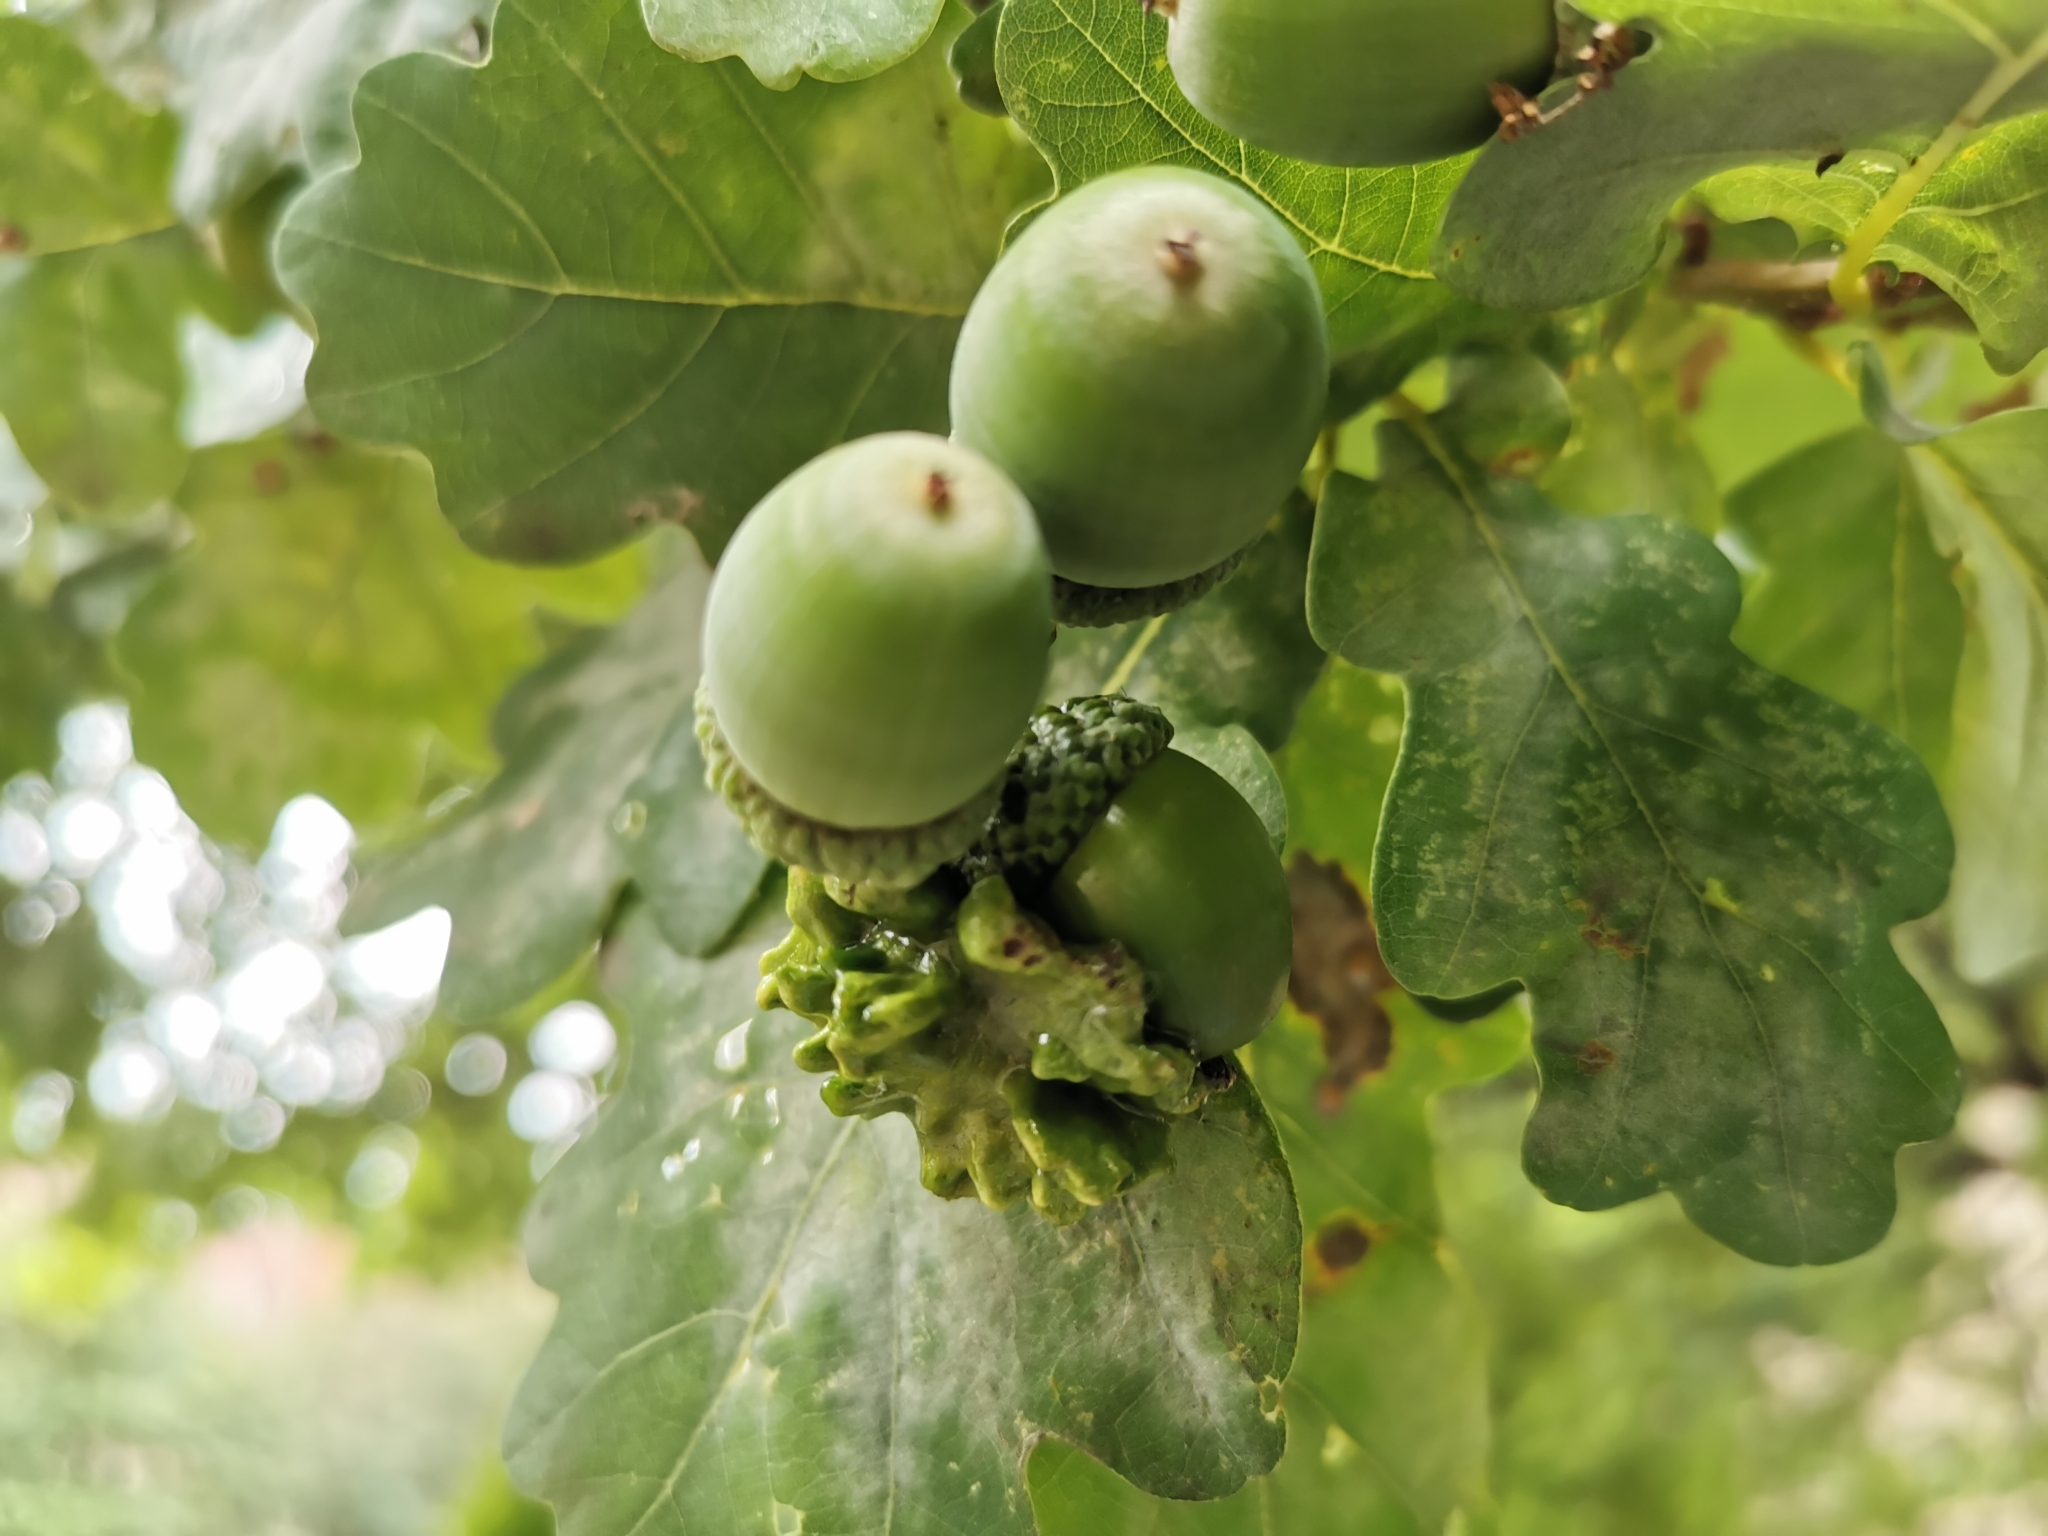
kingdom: Animalia
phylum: Arthropoda
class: Insecta
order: Hymenoptera
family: Cynipidae
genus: Andricus
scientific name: Andricus quercuscalicis
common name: Knopper gall
